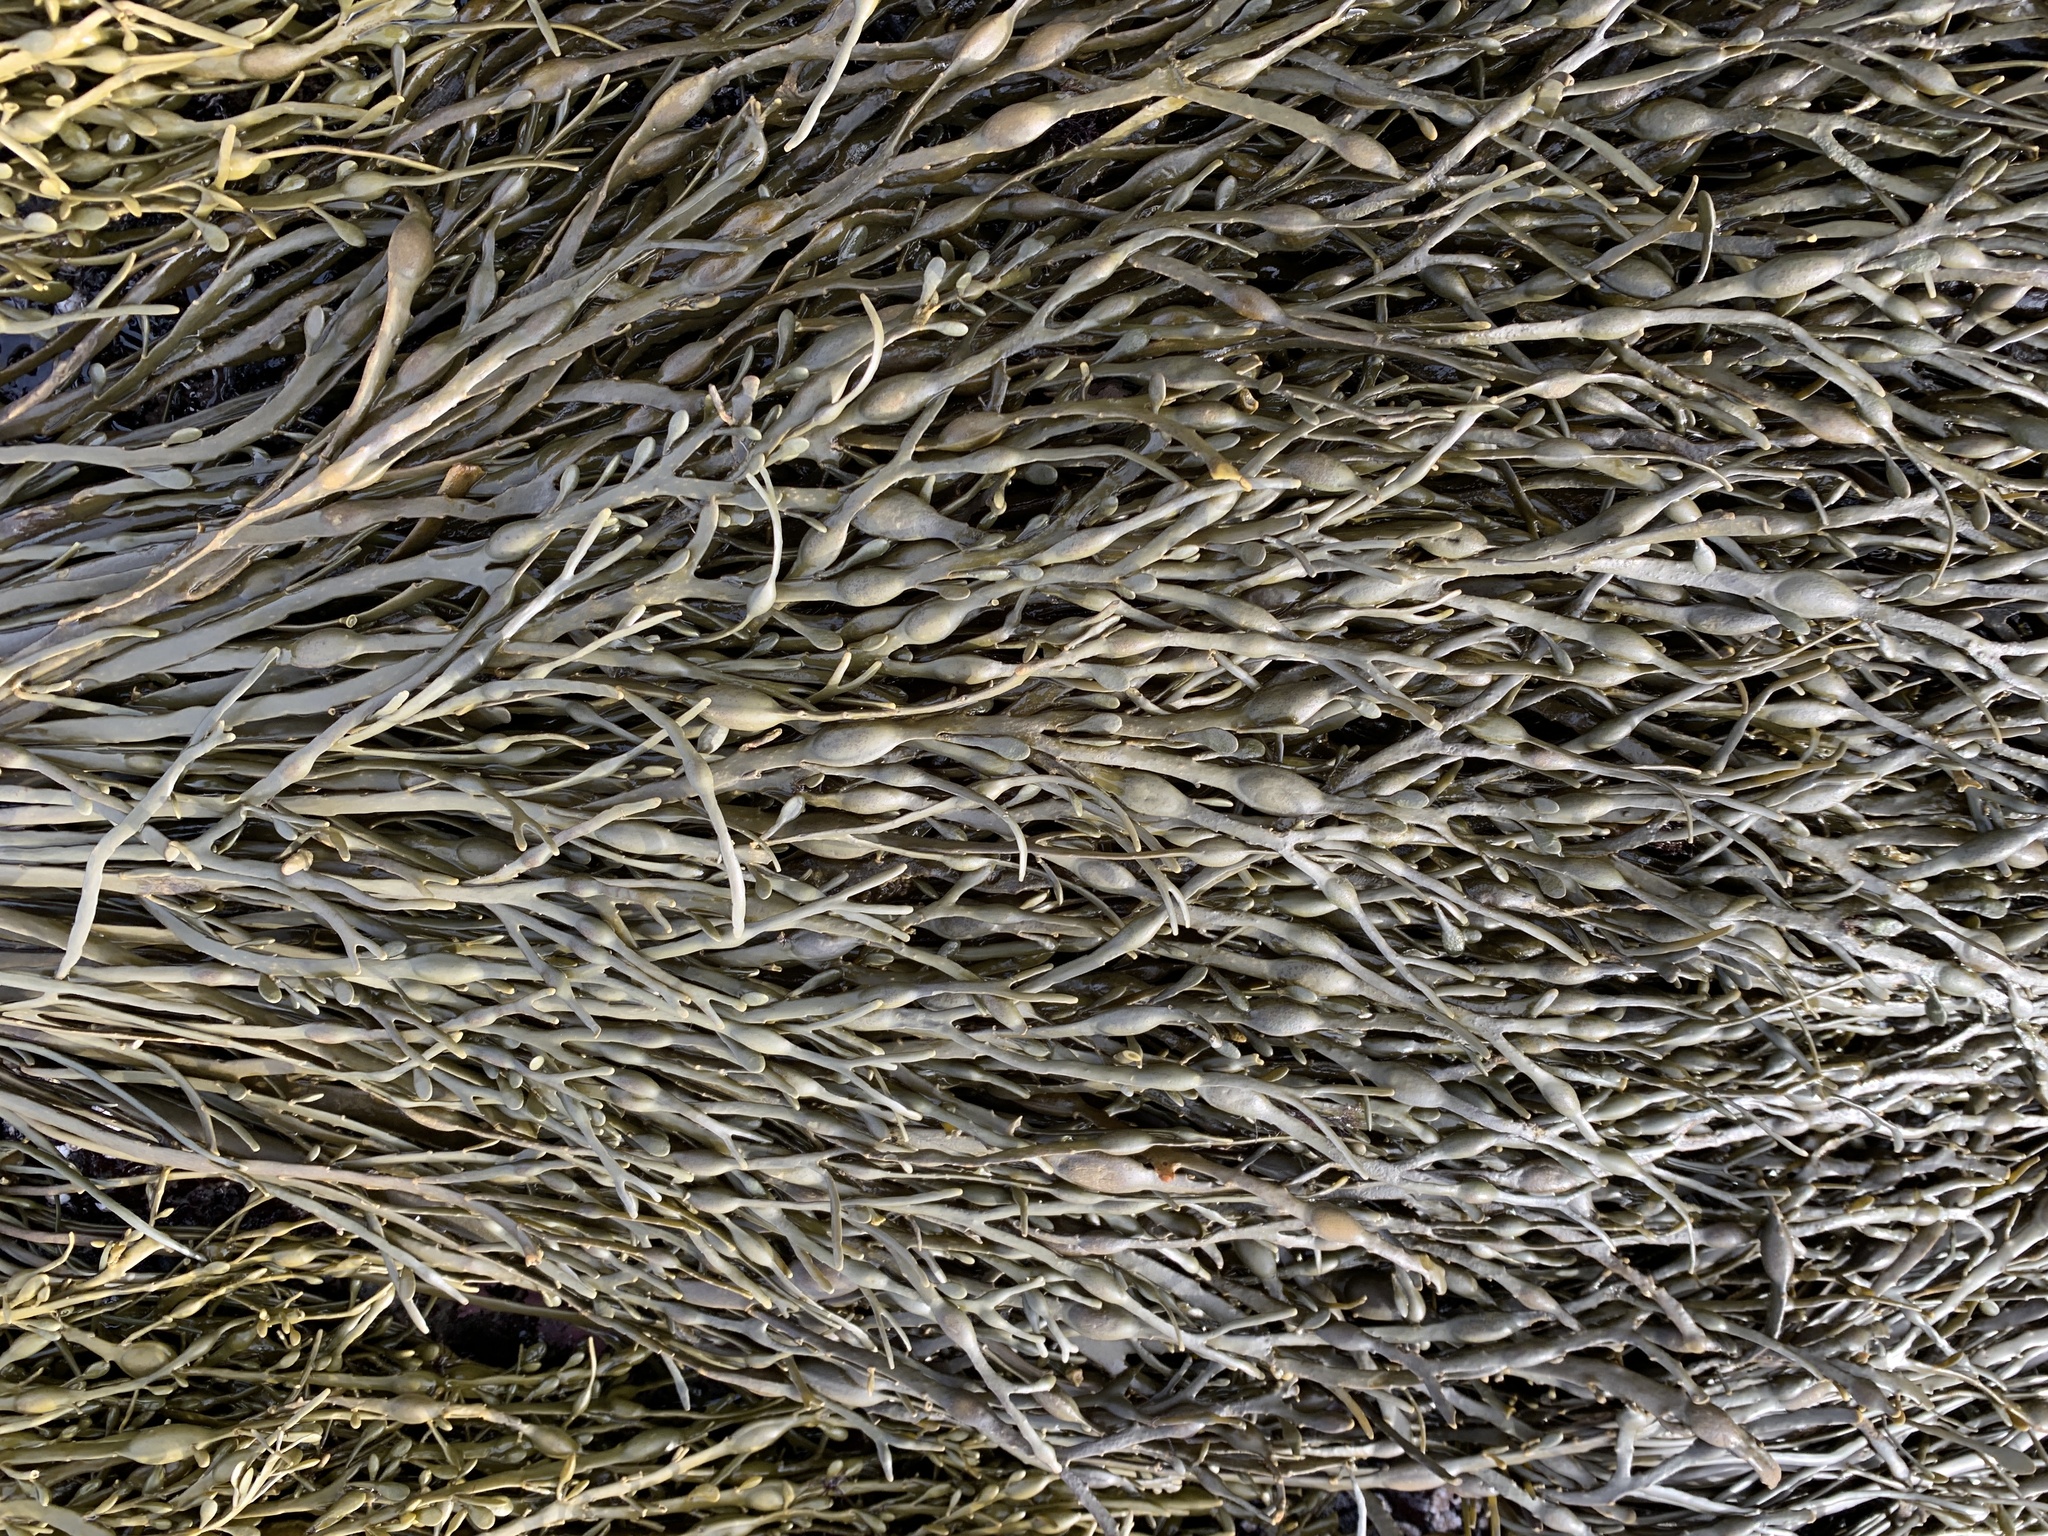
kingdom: Chromista
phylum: Ochrophyta
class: Phaeophyceae
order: Fucales
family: Fucaceae
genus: Ascophyllum
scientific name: Ascophyllum nodosum
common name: Knotted wrack
